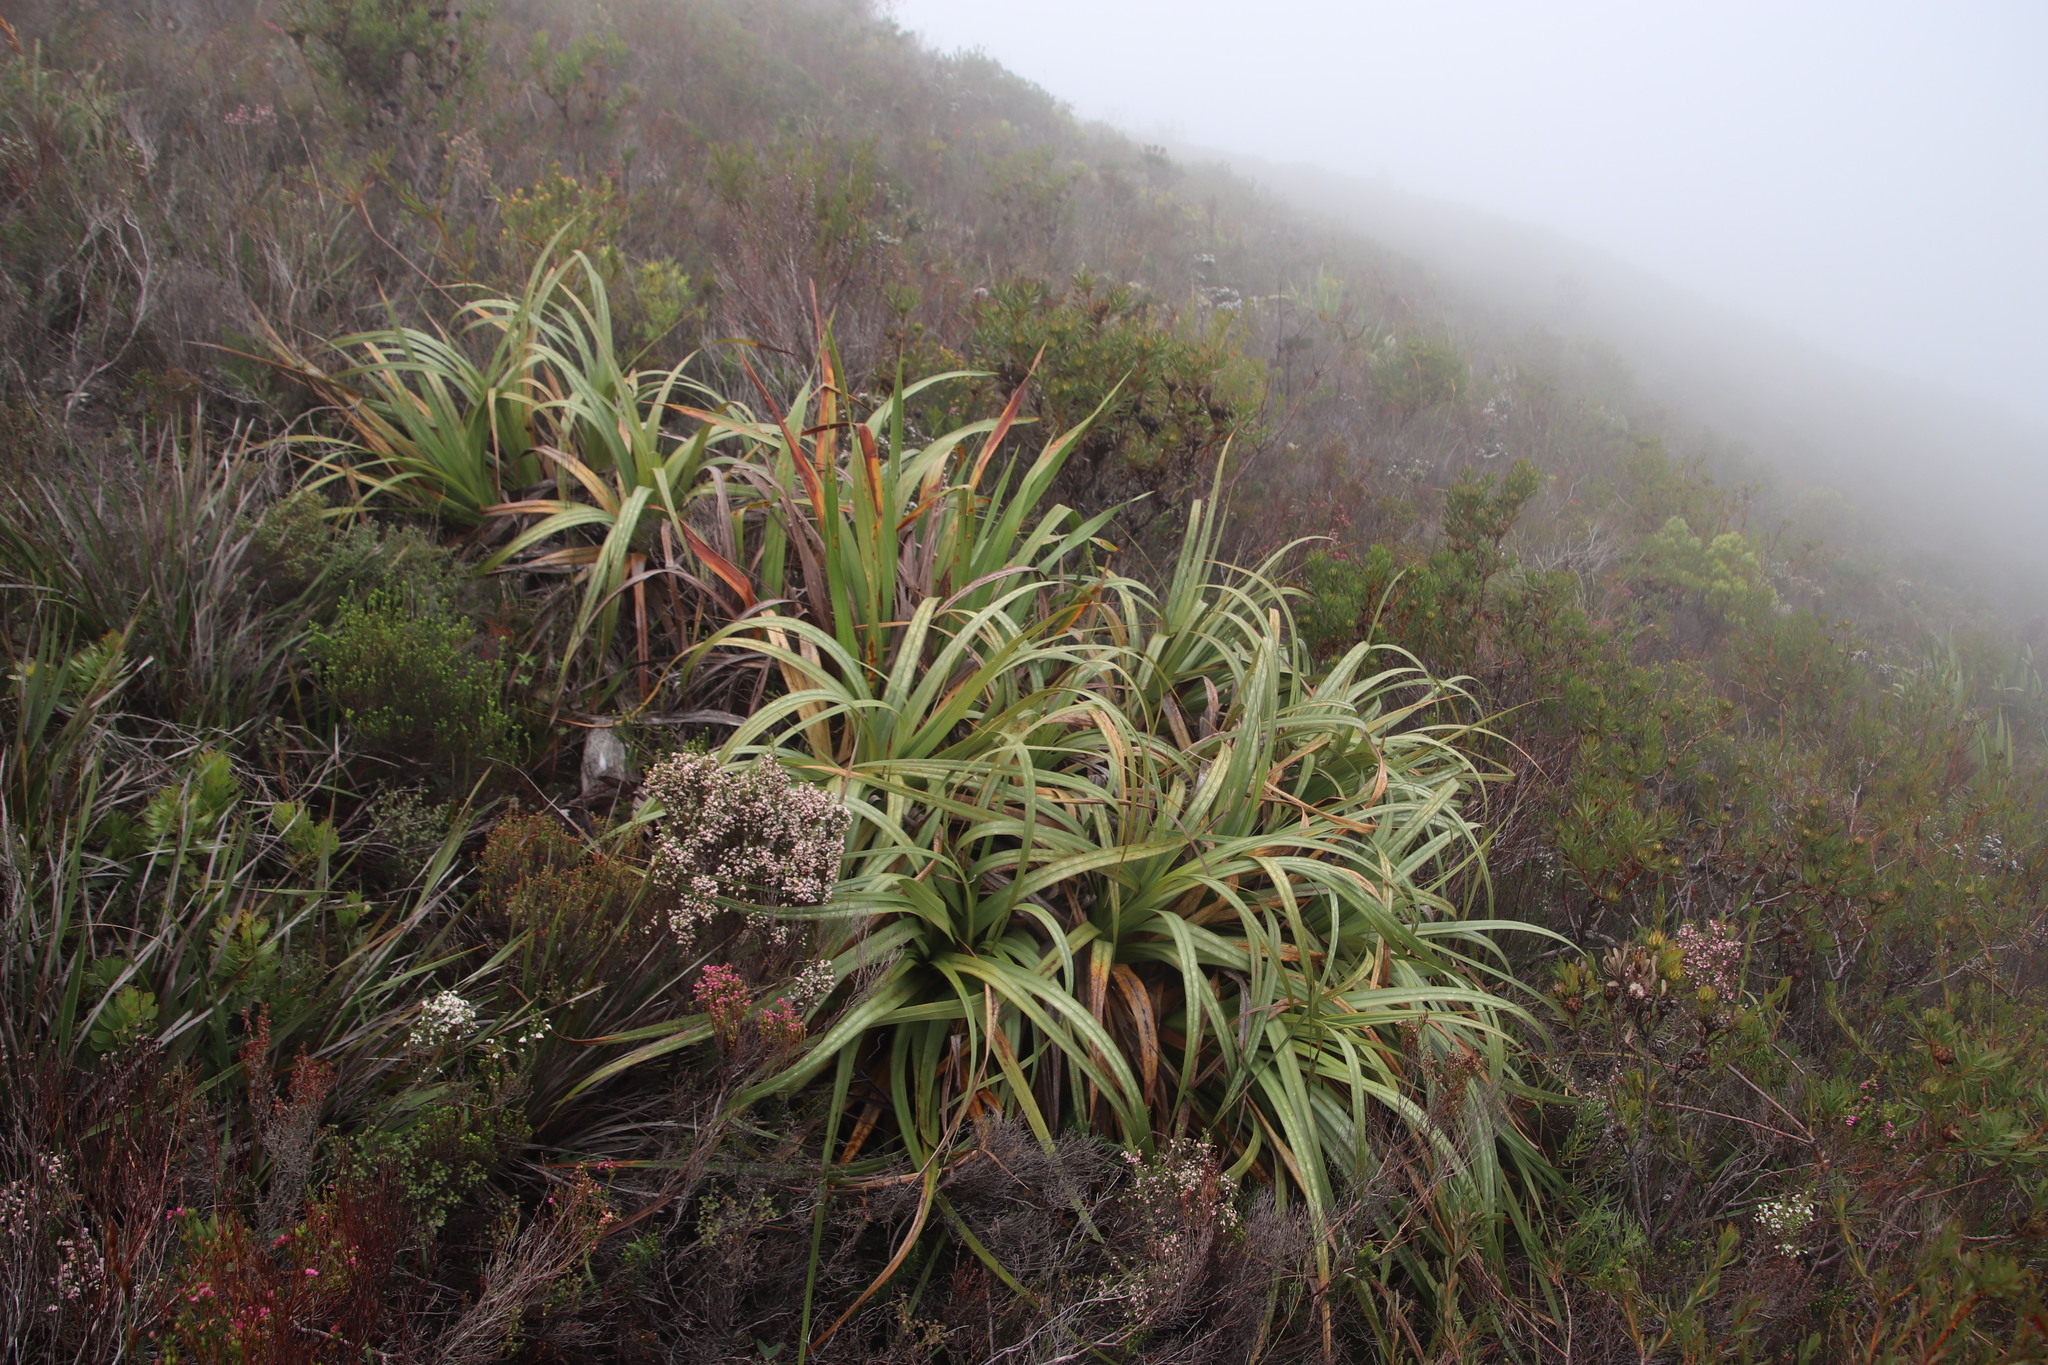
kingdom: Plantae
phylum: Tracheophyta
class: Liliopsida
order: Poales
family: Cyperaceae
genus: Tetraria
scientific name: Tetraria thermalis
